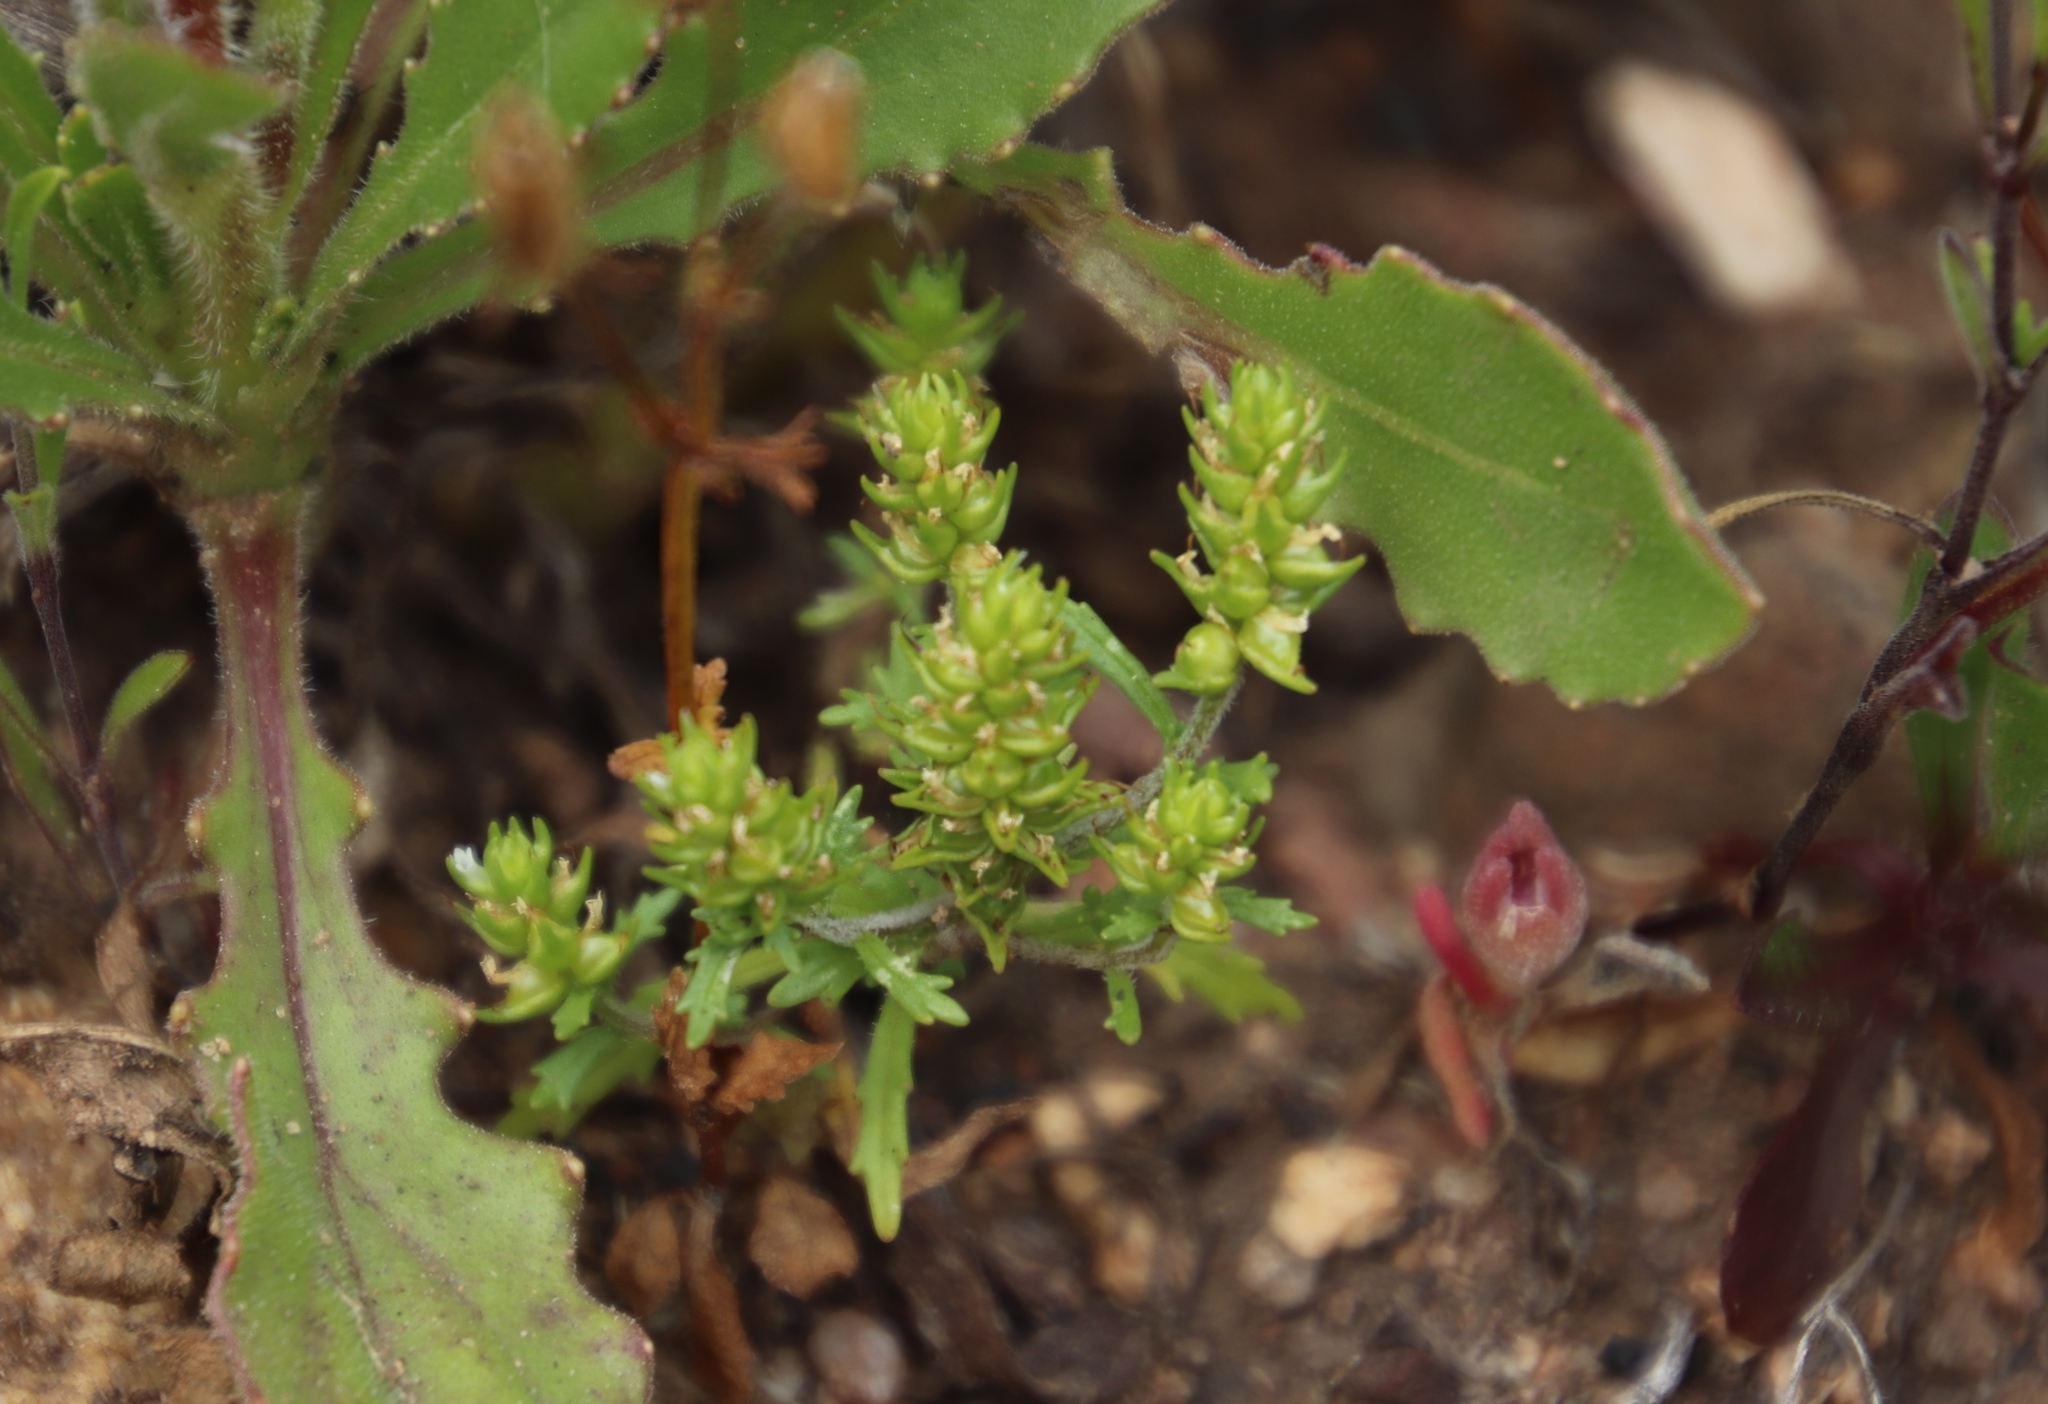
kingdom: Plantae
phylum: Tracheophyta
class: Magnoliopsida
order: Lamiales
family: Scrophulariaceae
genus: Dischisma
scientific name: Dischisma capitatum
